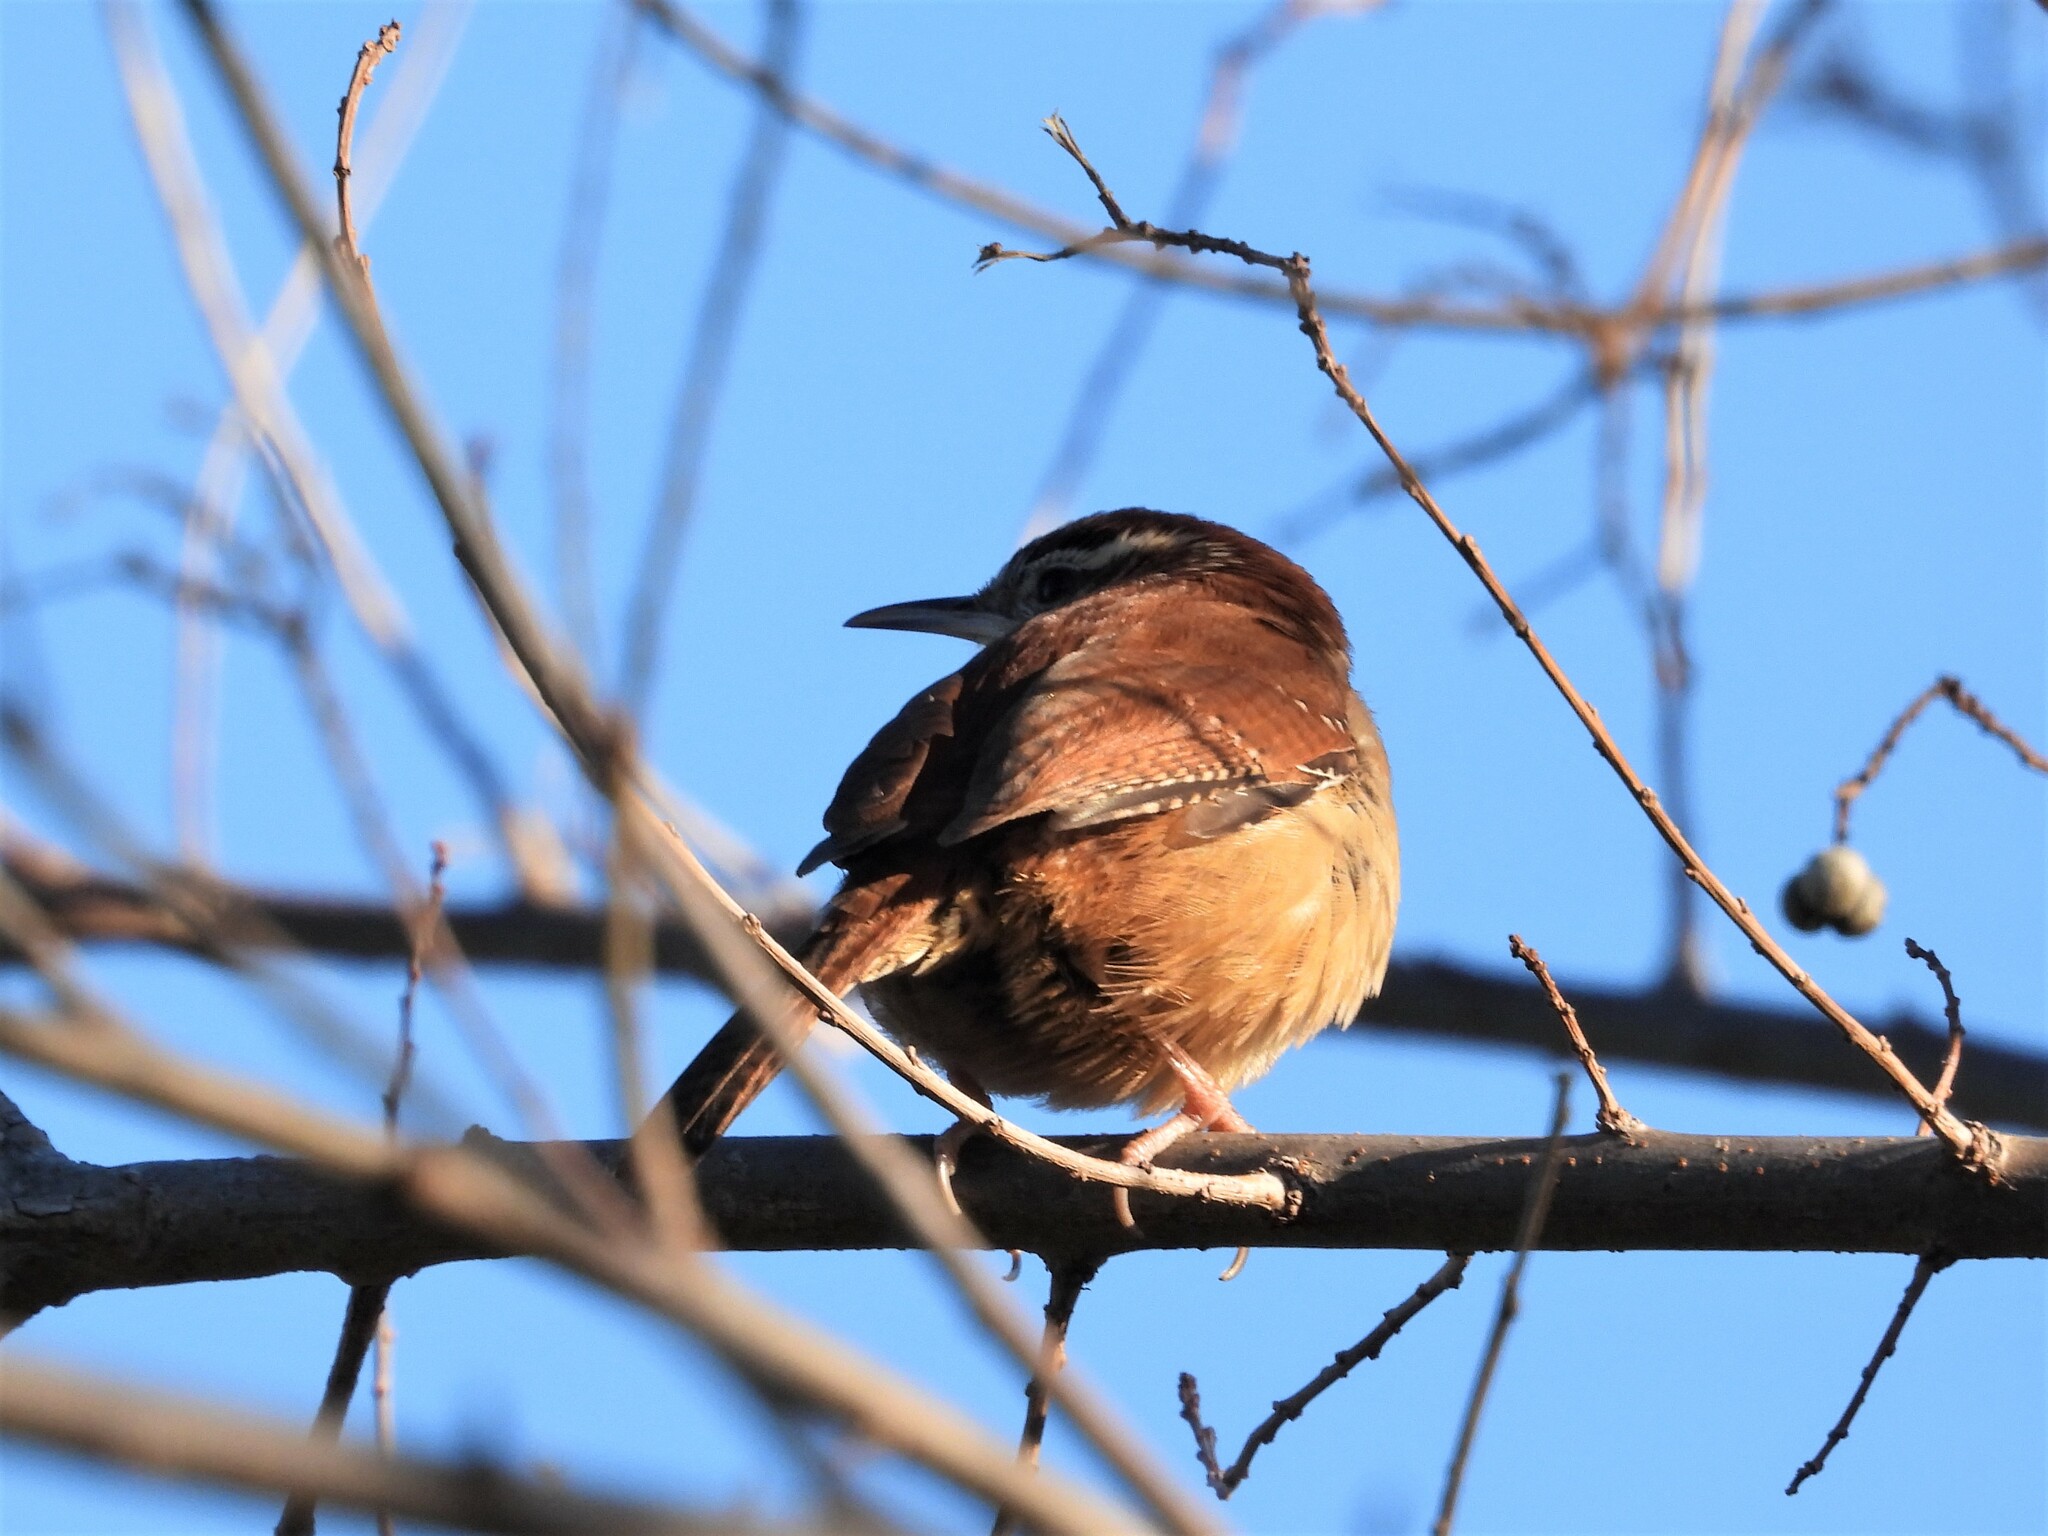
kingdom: Animalia
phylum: Chordata
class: Aves
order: Passeriformes
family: Troglodytidae
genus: Thryothorus
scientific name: Thryothorus ludovicianus
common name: Carolina wren
